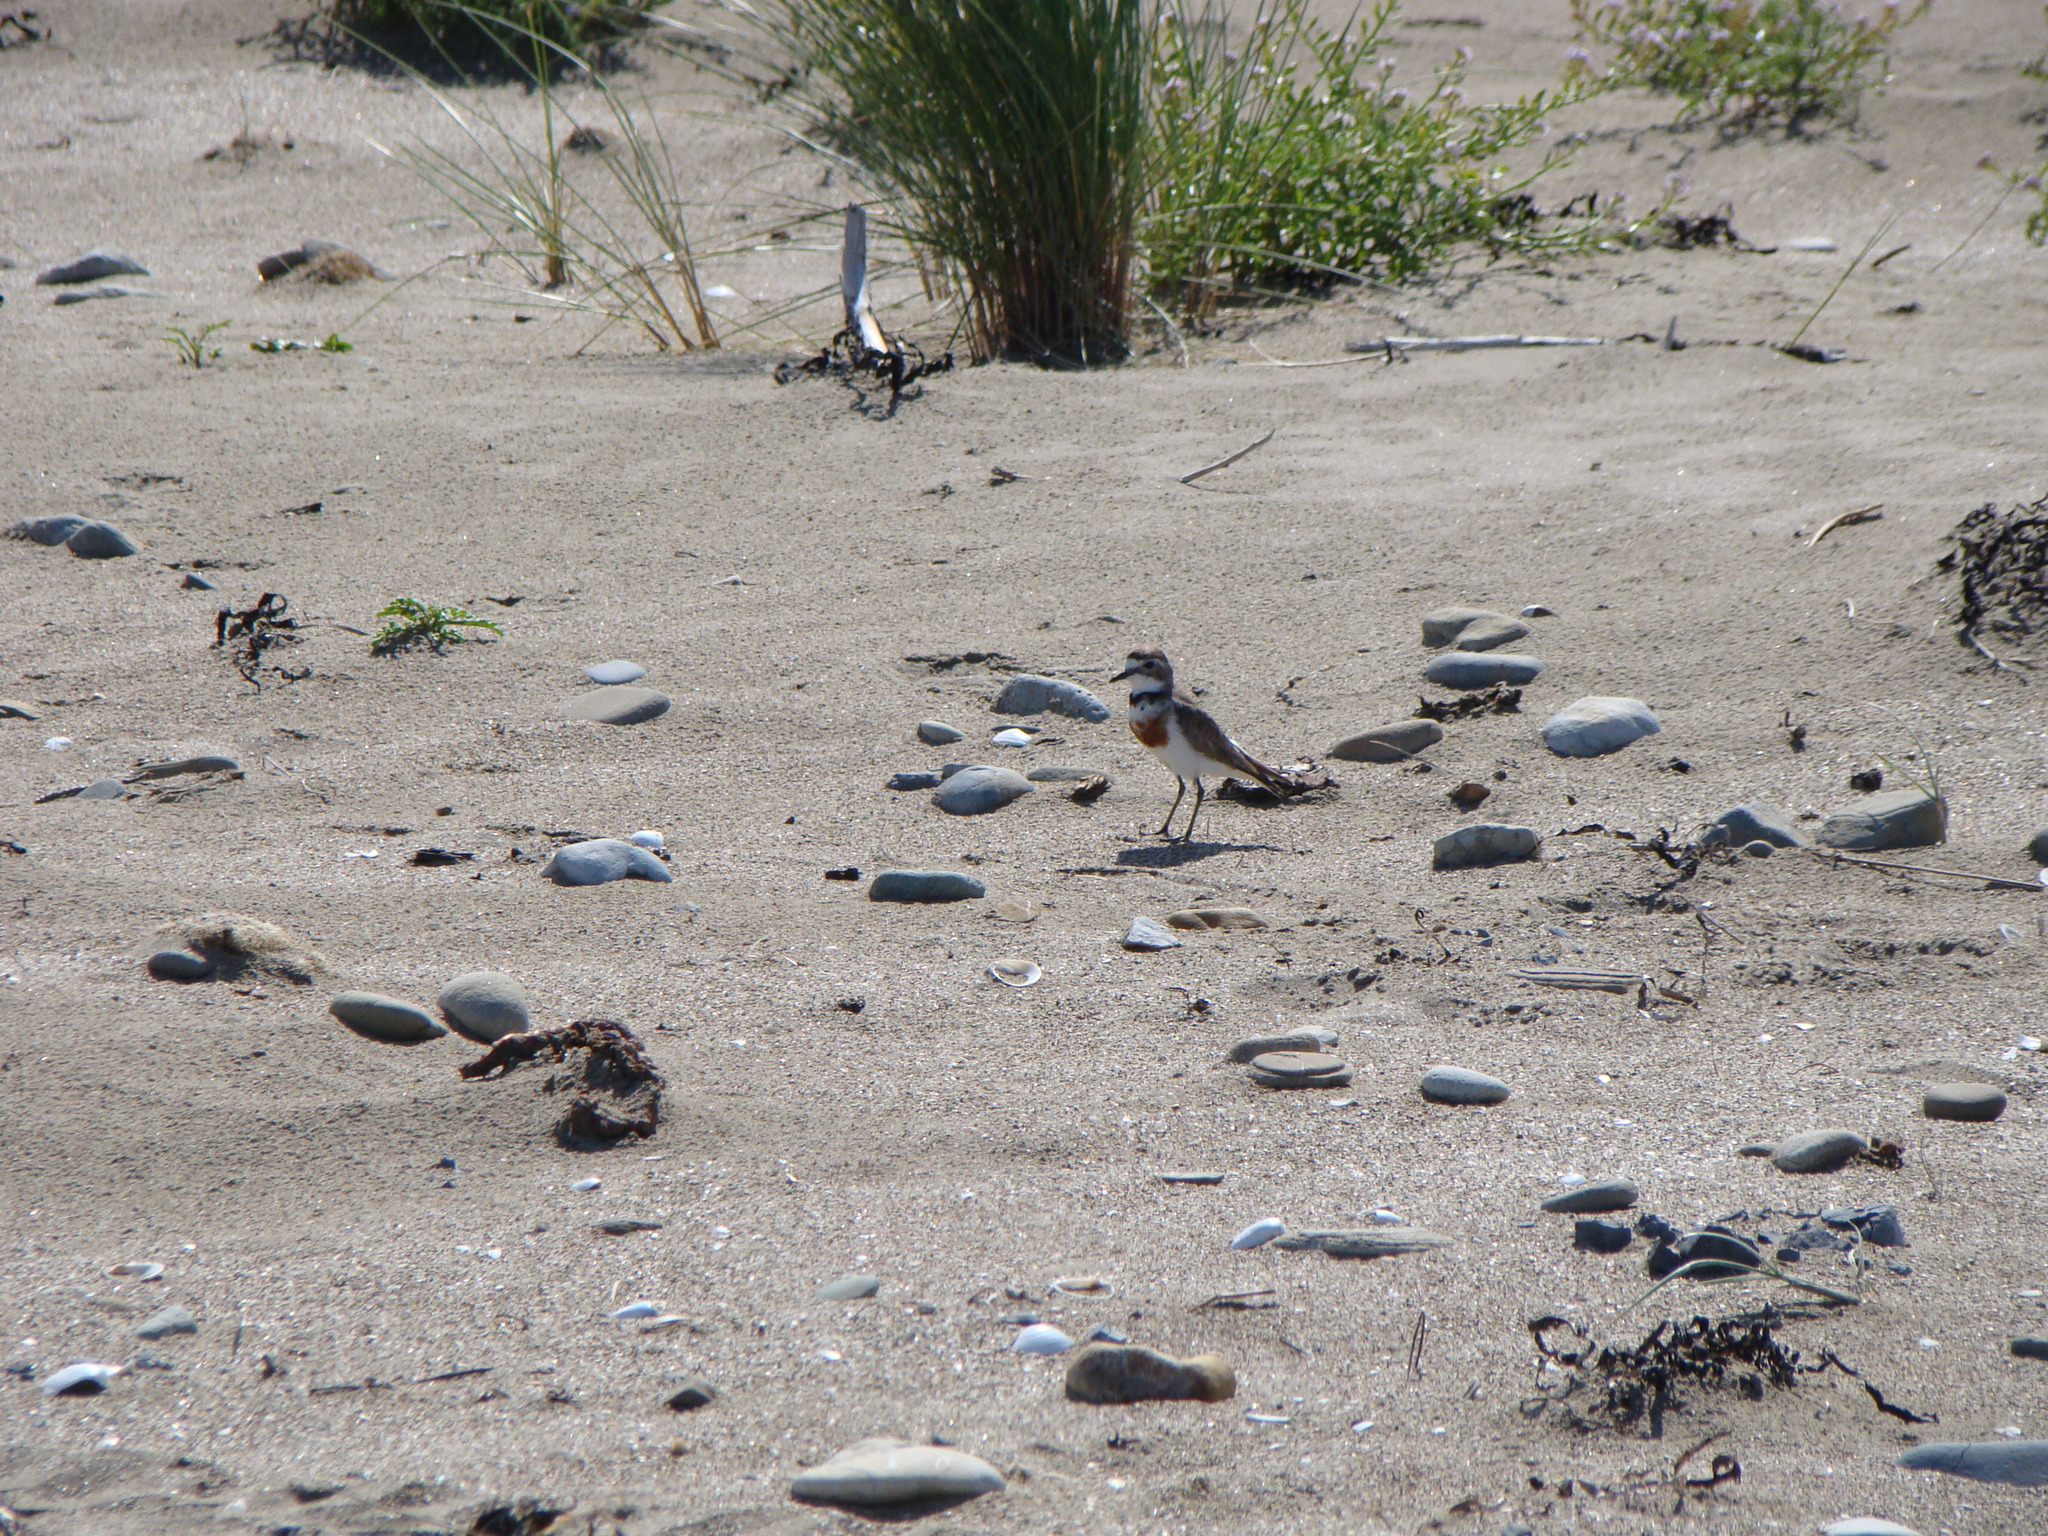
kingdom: Animalia
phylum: Chordata
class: Aves
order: Charadriiformes
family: Charadriidae
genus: Anarhynchus
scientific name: Anarhynchus
